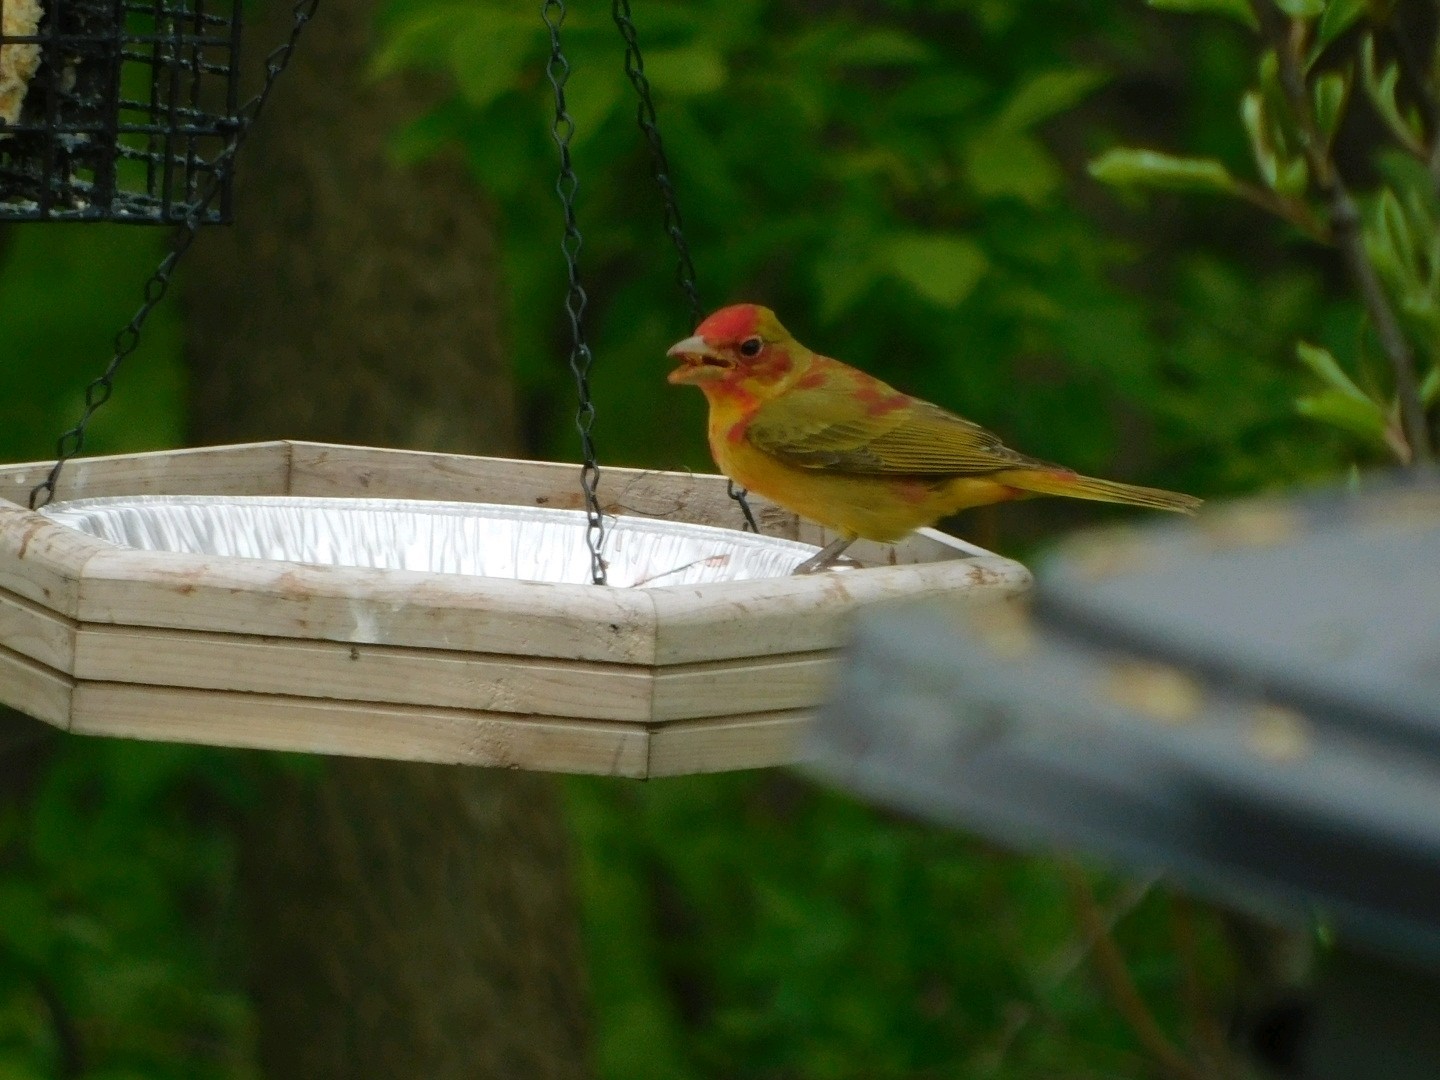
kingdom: Animalia
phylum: Chordata
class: Aves
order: Passeriformes
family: Cardinalidae
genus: Piranga
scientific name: Piranga rubra
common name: Summer tanager
